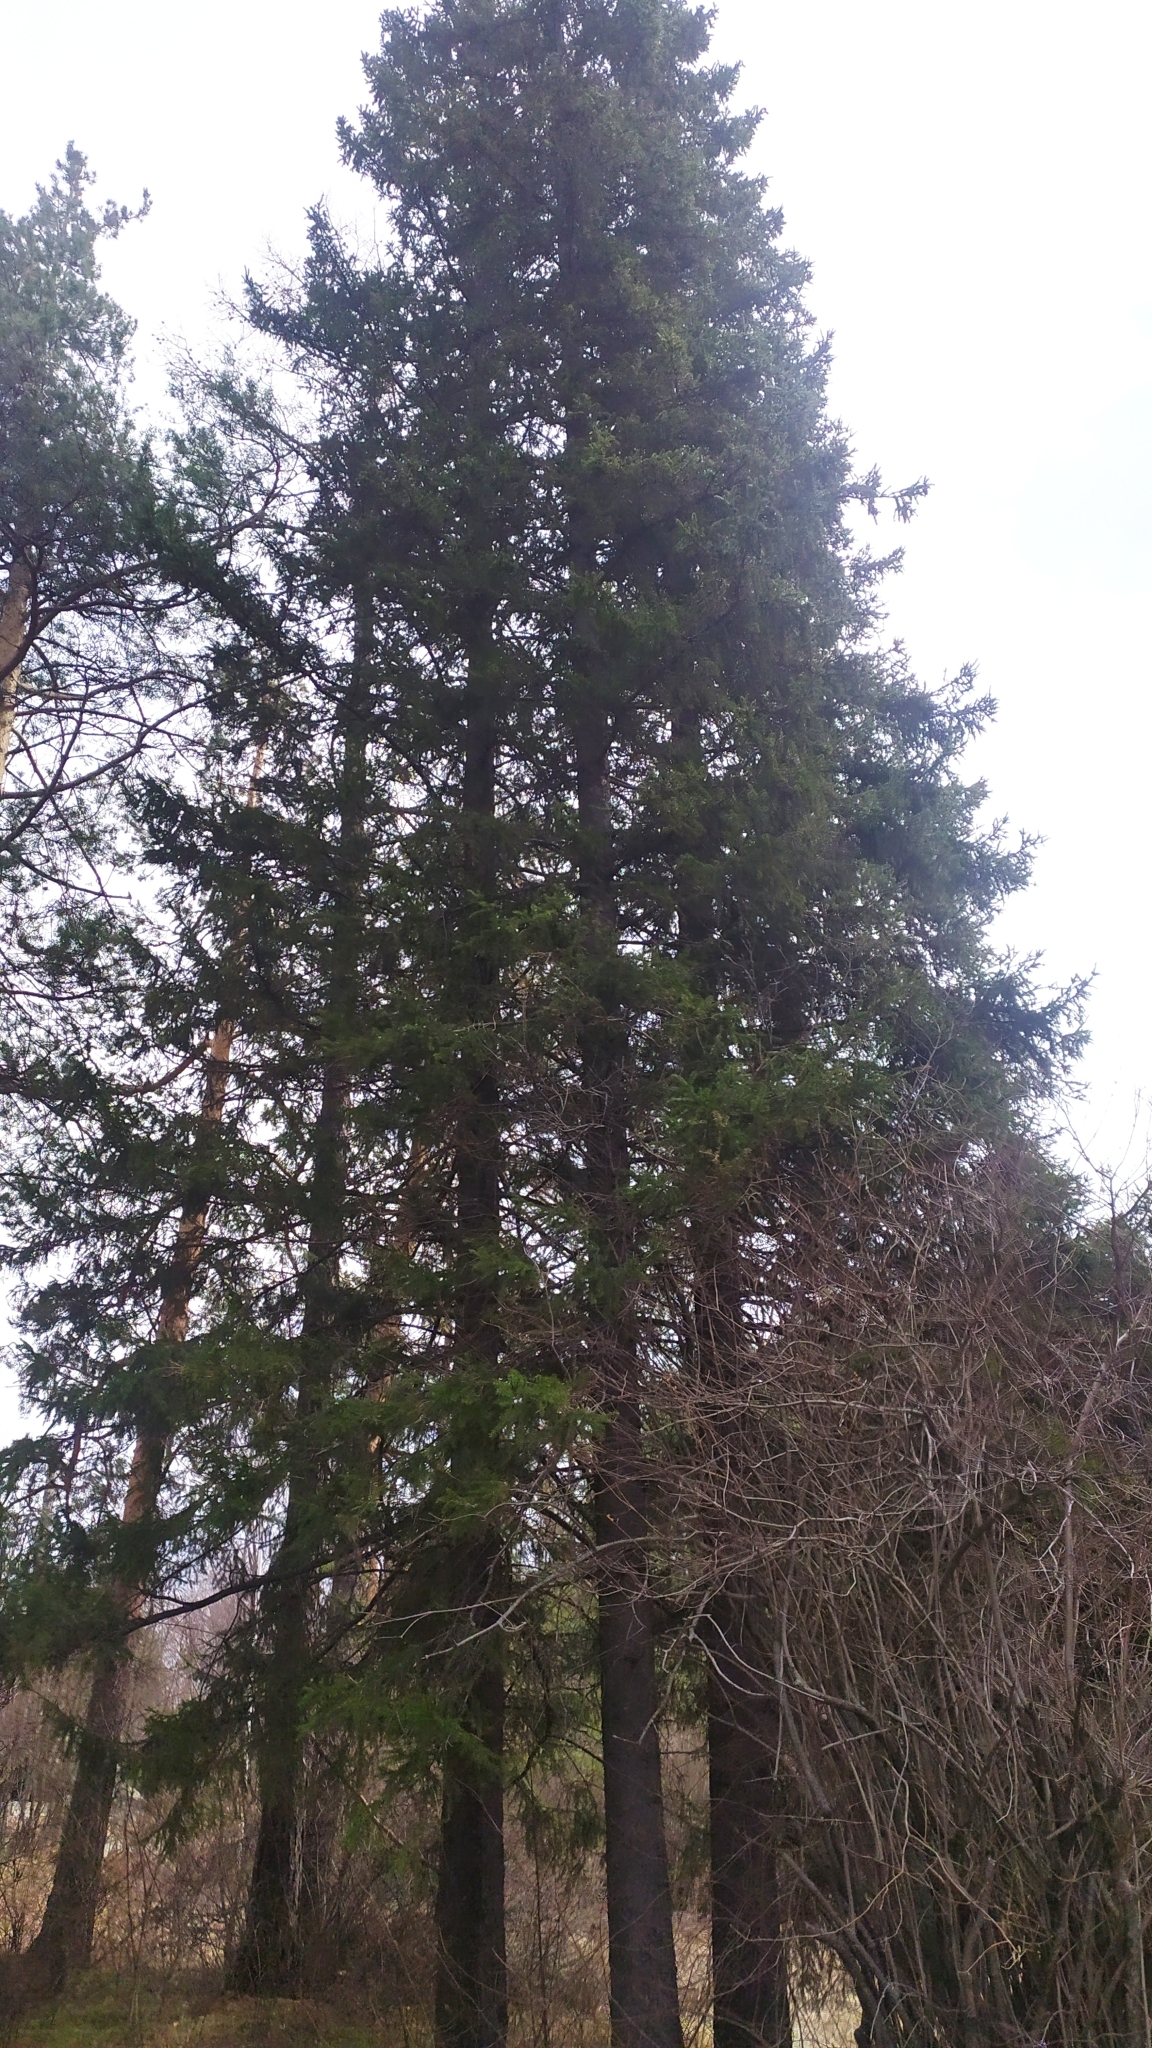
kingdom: Plantae
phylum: Tracheophyta
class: Pinopsida
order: Pinales
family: Pinaceae
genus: Picea
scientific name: Picea obovata
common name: Siberian spruce
